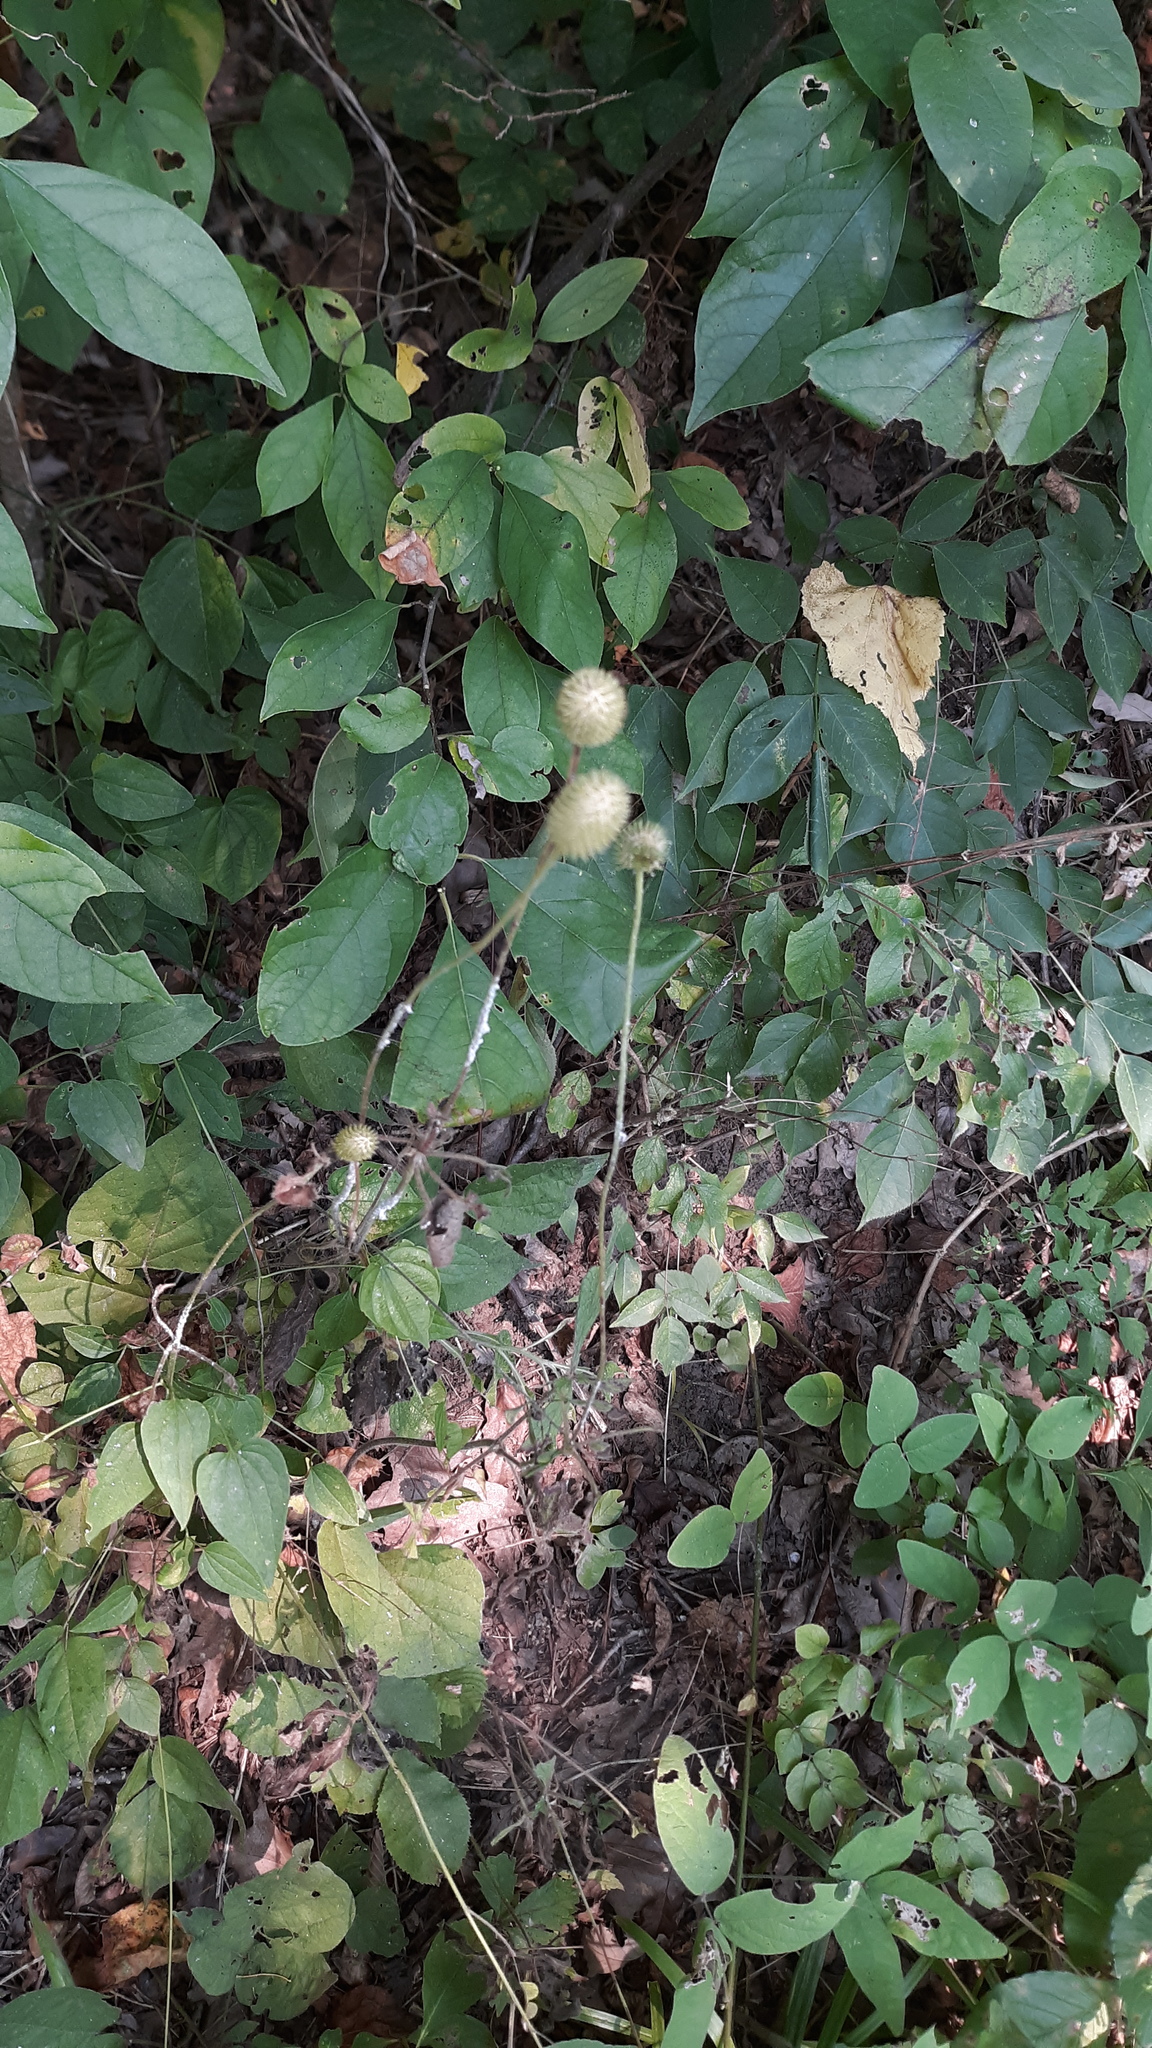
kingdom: Plantae
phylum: Tracheophyta
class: Magnoliopsida
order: Ranunculales
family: Ranunculaceae
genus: Anemone
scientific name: Anemone virginiana
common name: Tall anemone
